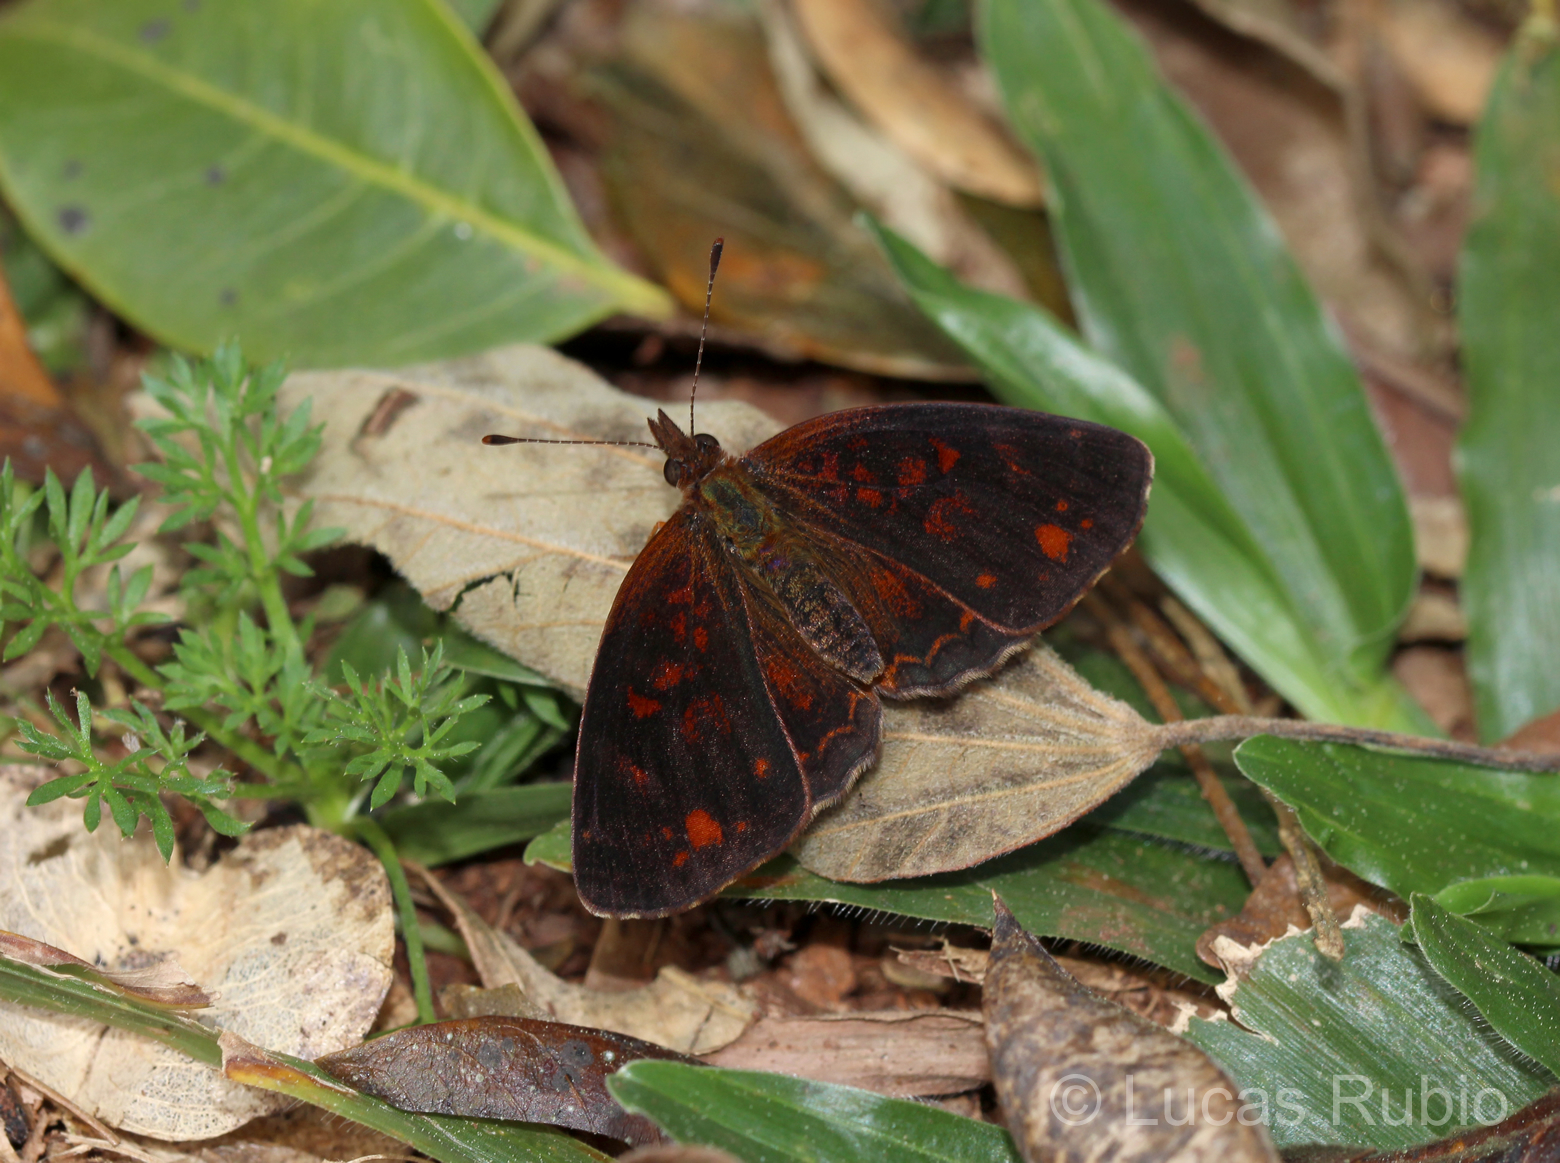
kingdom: Animalia
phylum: Arthropoda
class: Insecta
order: Lepidoptera
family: Nymphalidae
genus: Ortilia
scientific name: Ortilia velica
